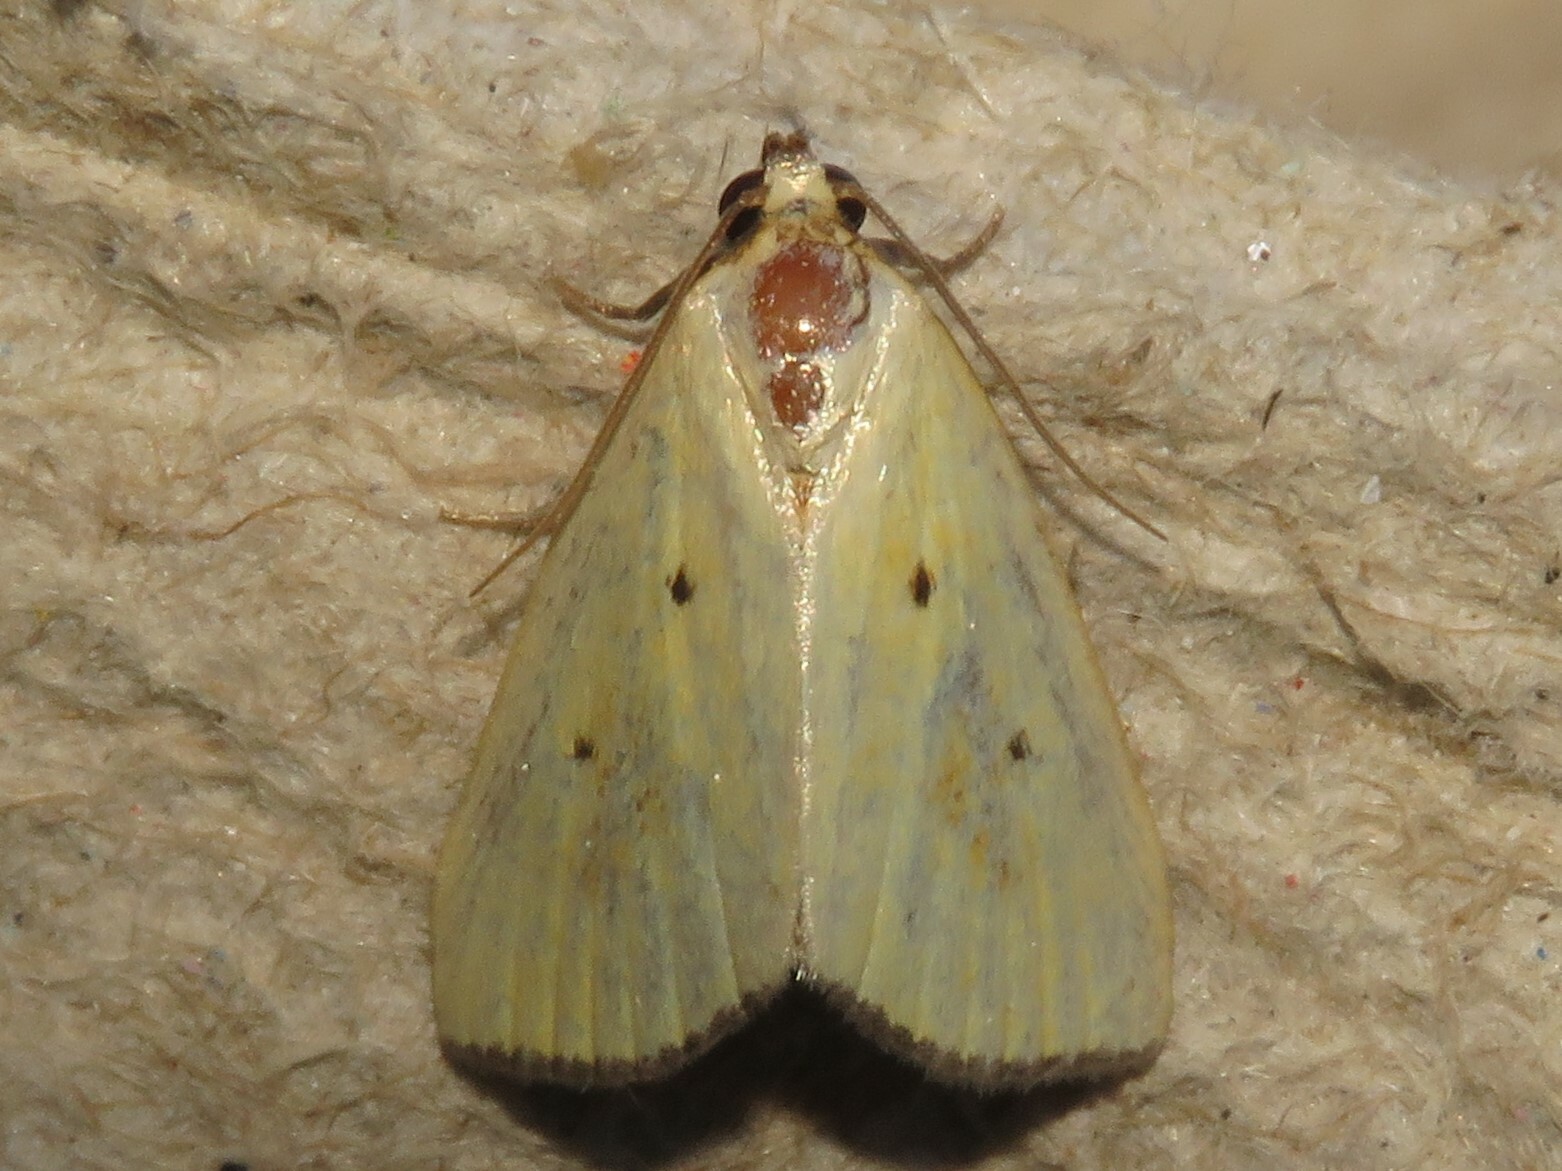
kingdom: Animalia
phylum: Arthropoda
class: Insecta
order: Lepidoptera
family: Noctuidae
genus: Marimatha
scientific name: Marimatha nigrofimbria
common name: Black-bordered lemon moth
